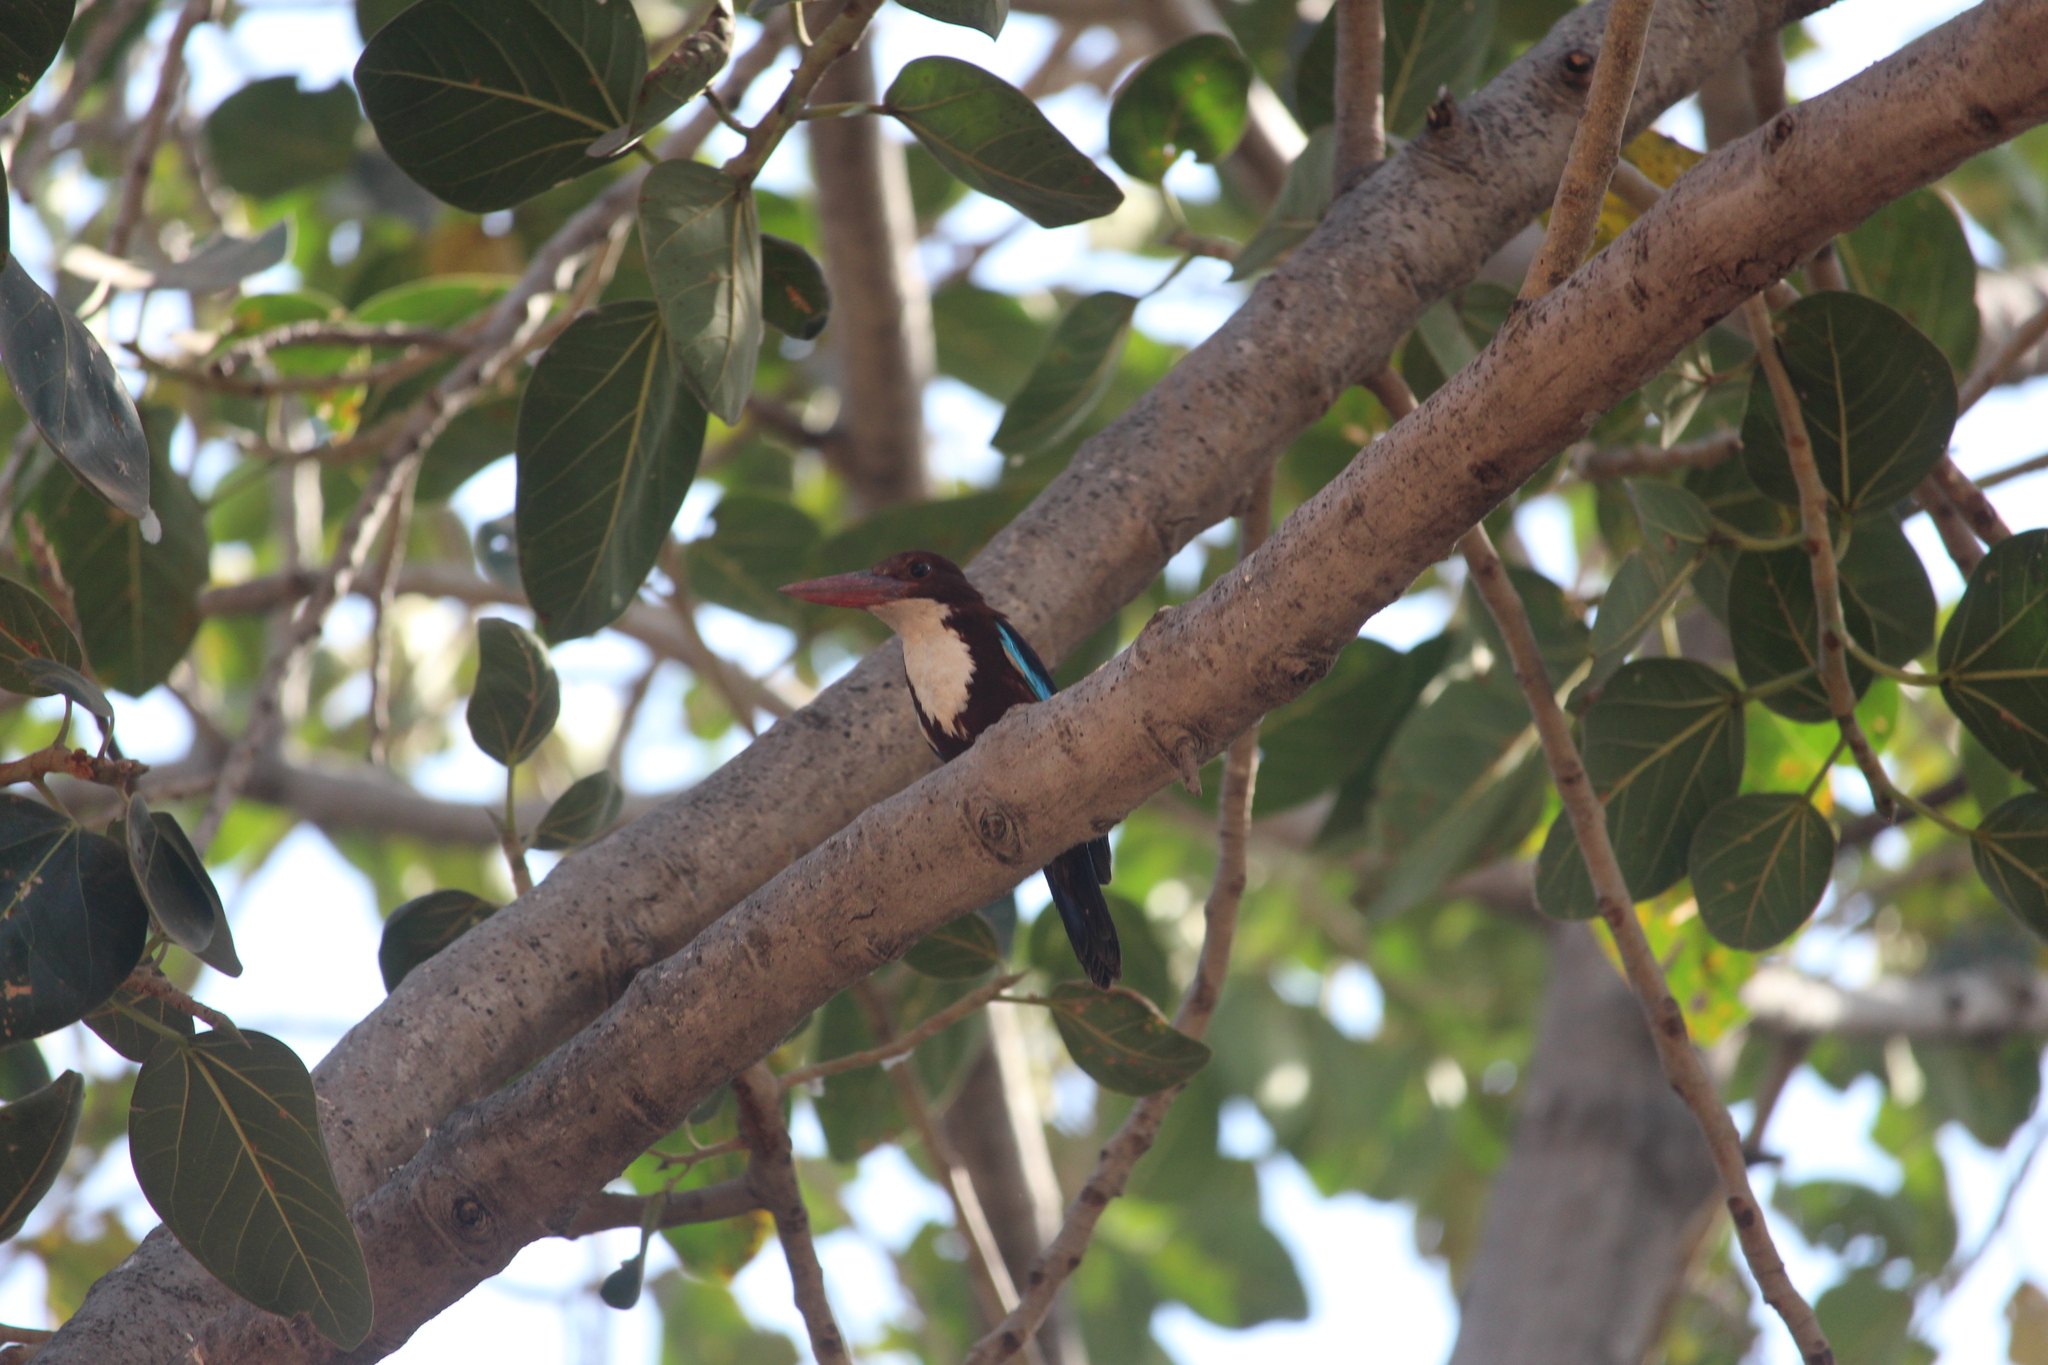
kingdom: Animalia
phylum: Chordata
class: Aves
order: Coraciiformes
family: Alcedinidae
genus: Halcyon
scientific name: Halcyon smyrnensis
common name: White-throated kingfisher
